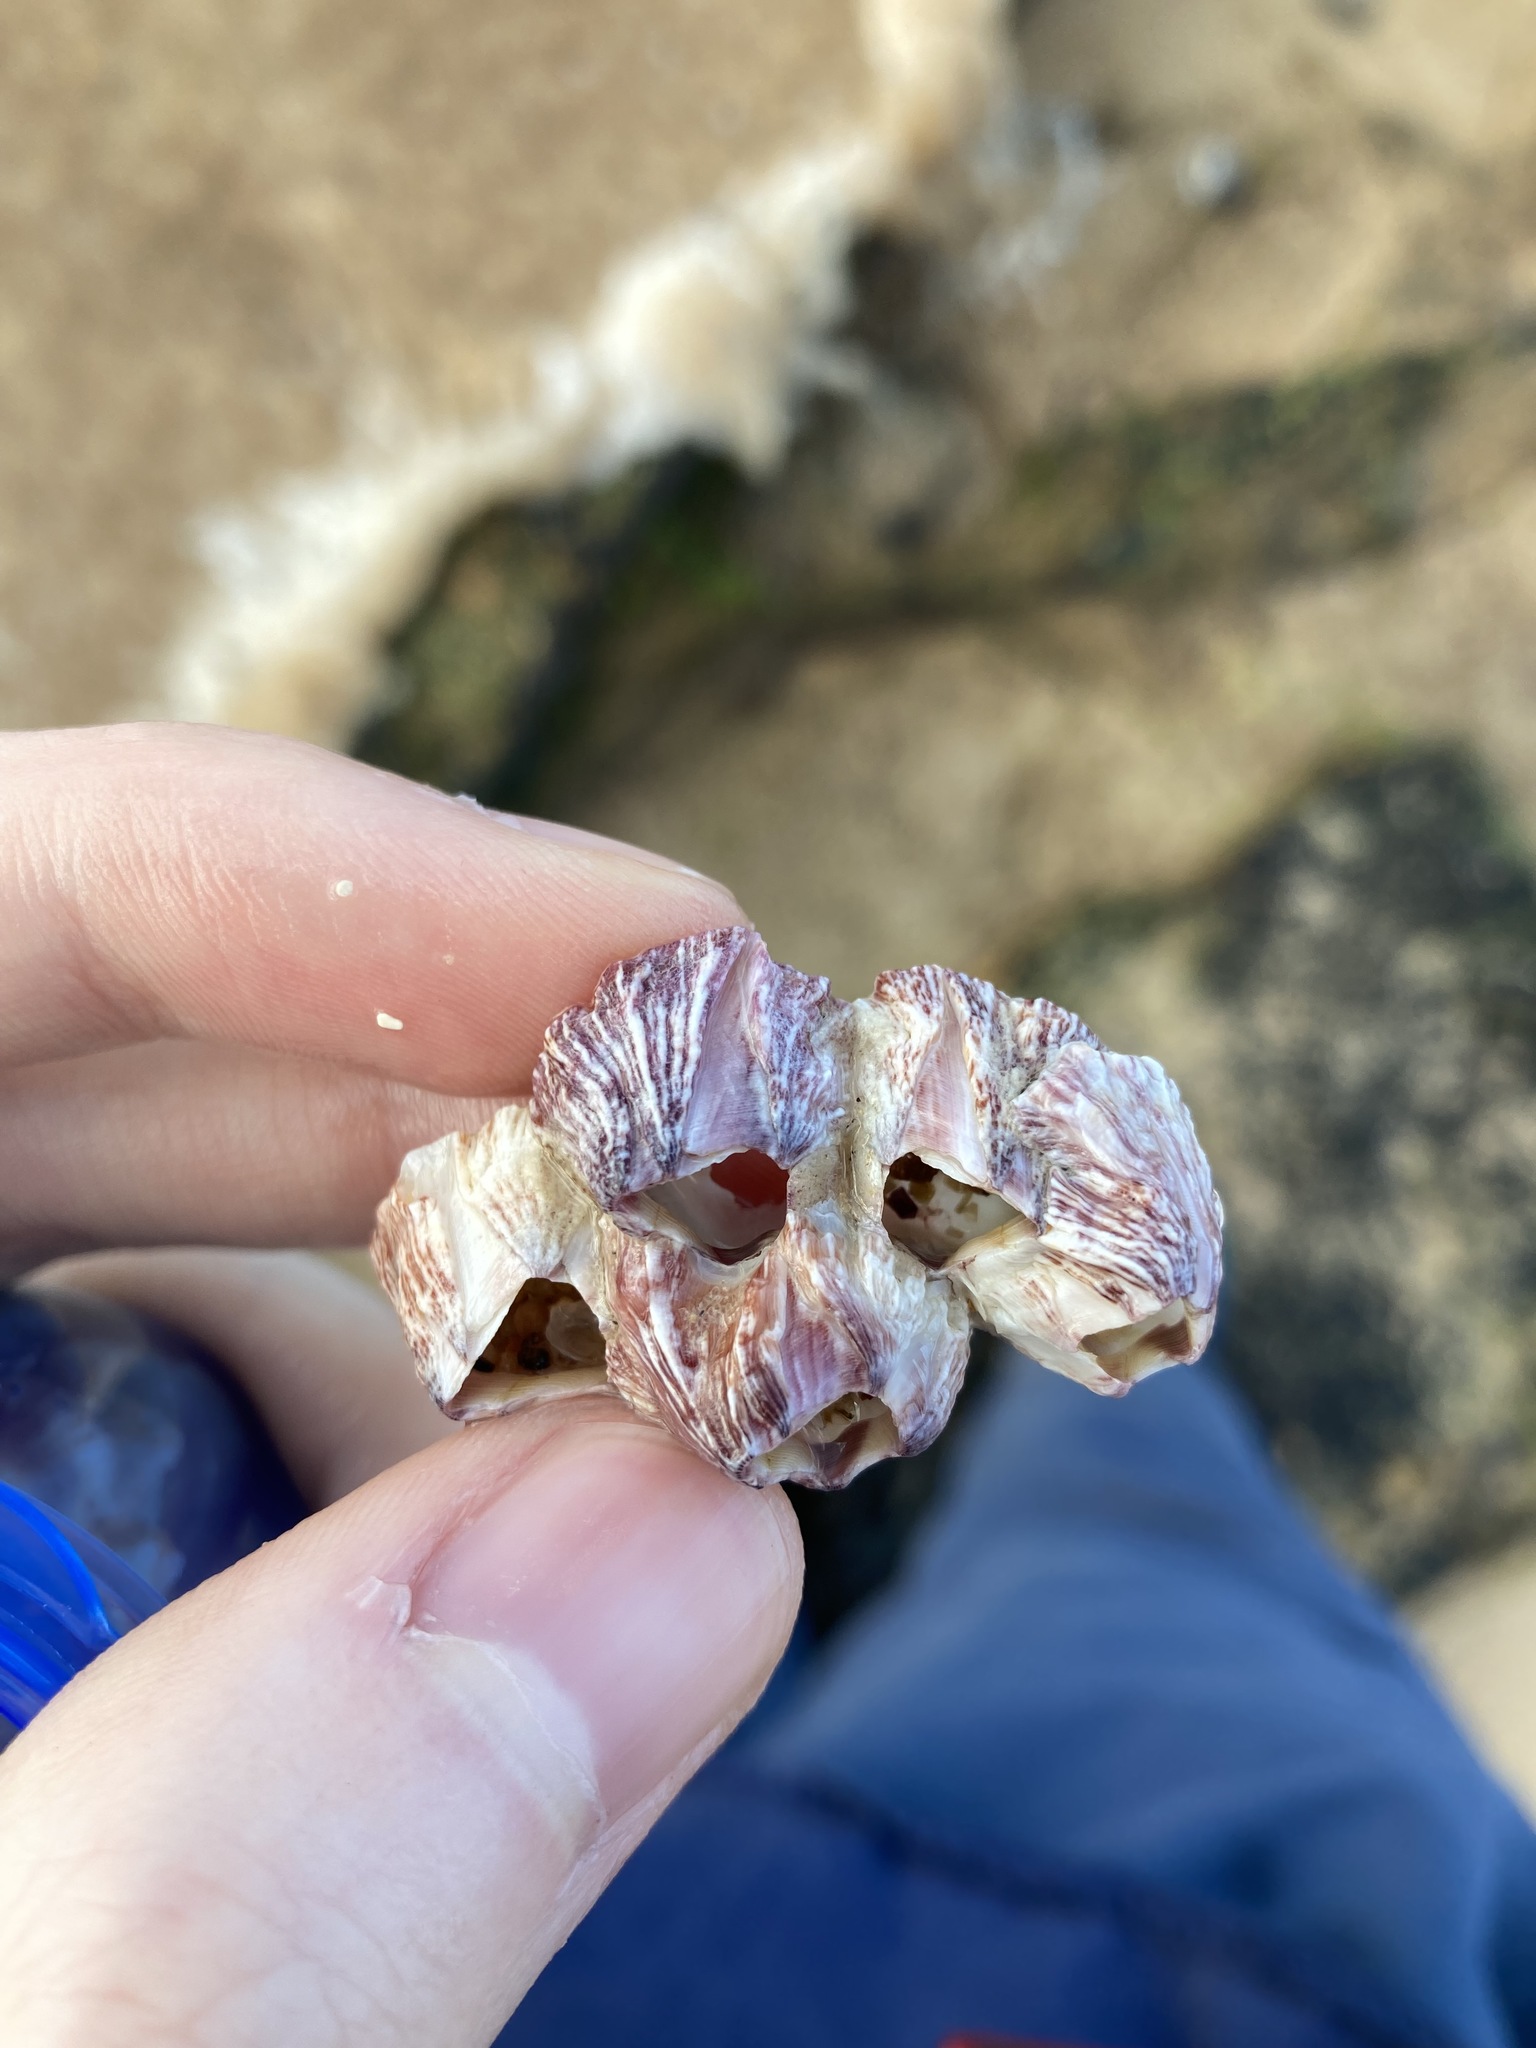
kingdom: Animalia
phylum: Arthropoda
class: Maxillopoda
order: Sessilia
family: Balanidae
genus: Balanus
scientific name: Balanus trigonus
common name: Triangle barnacle
